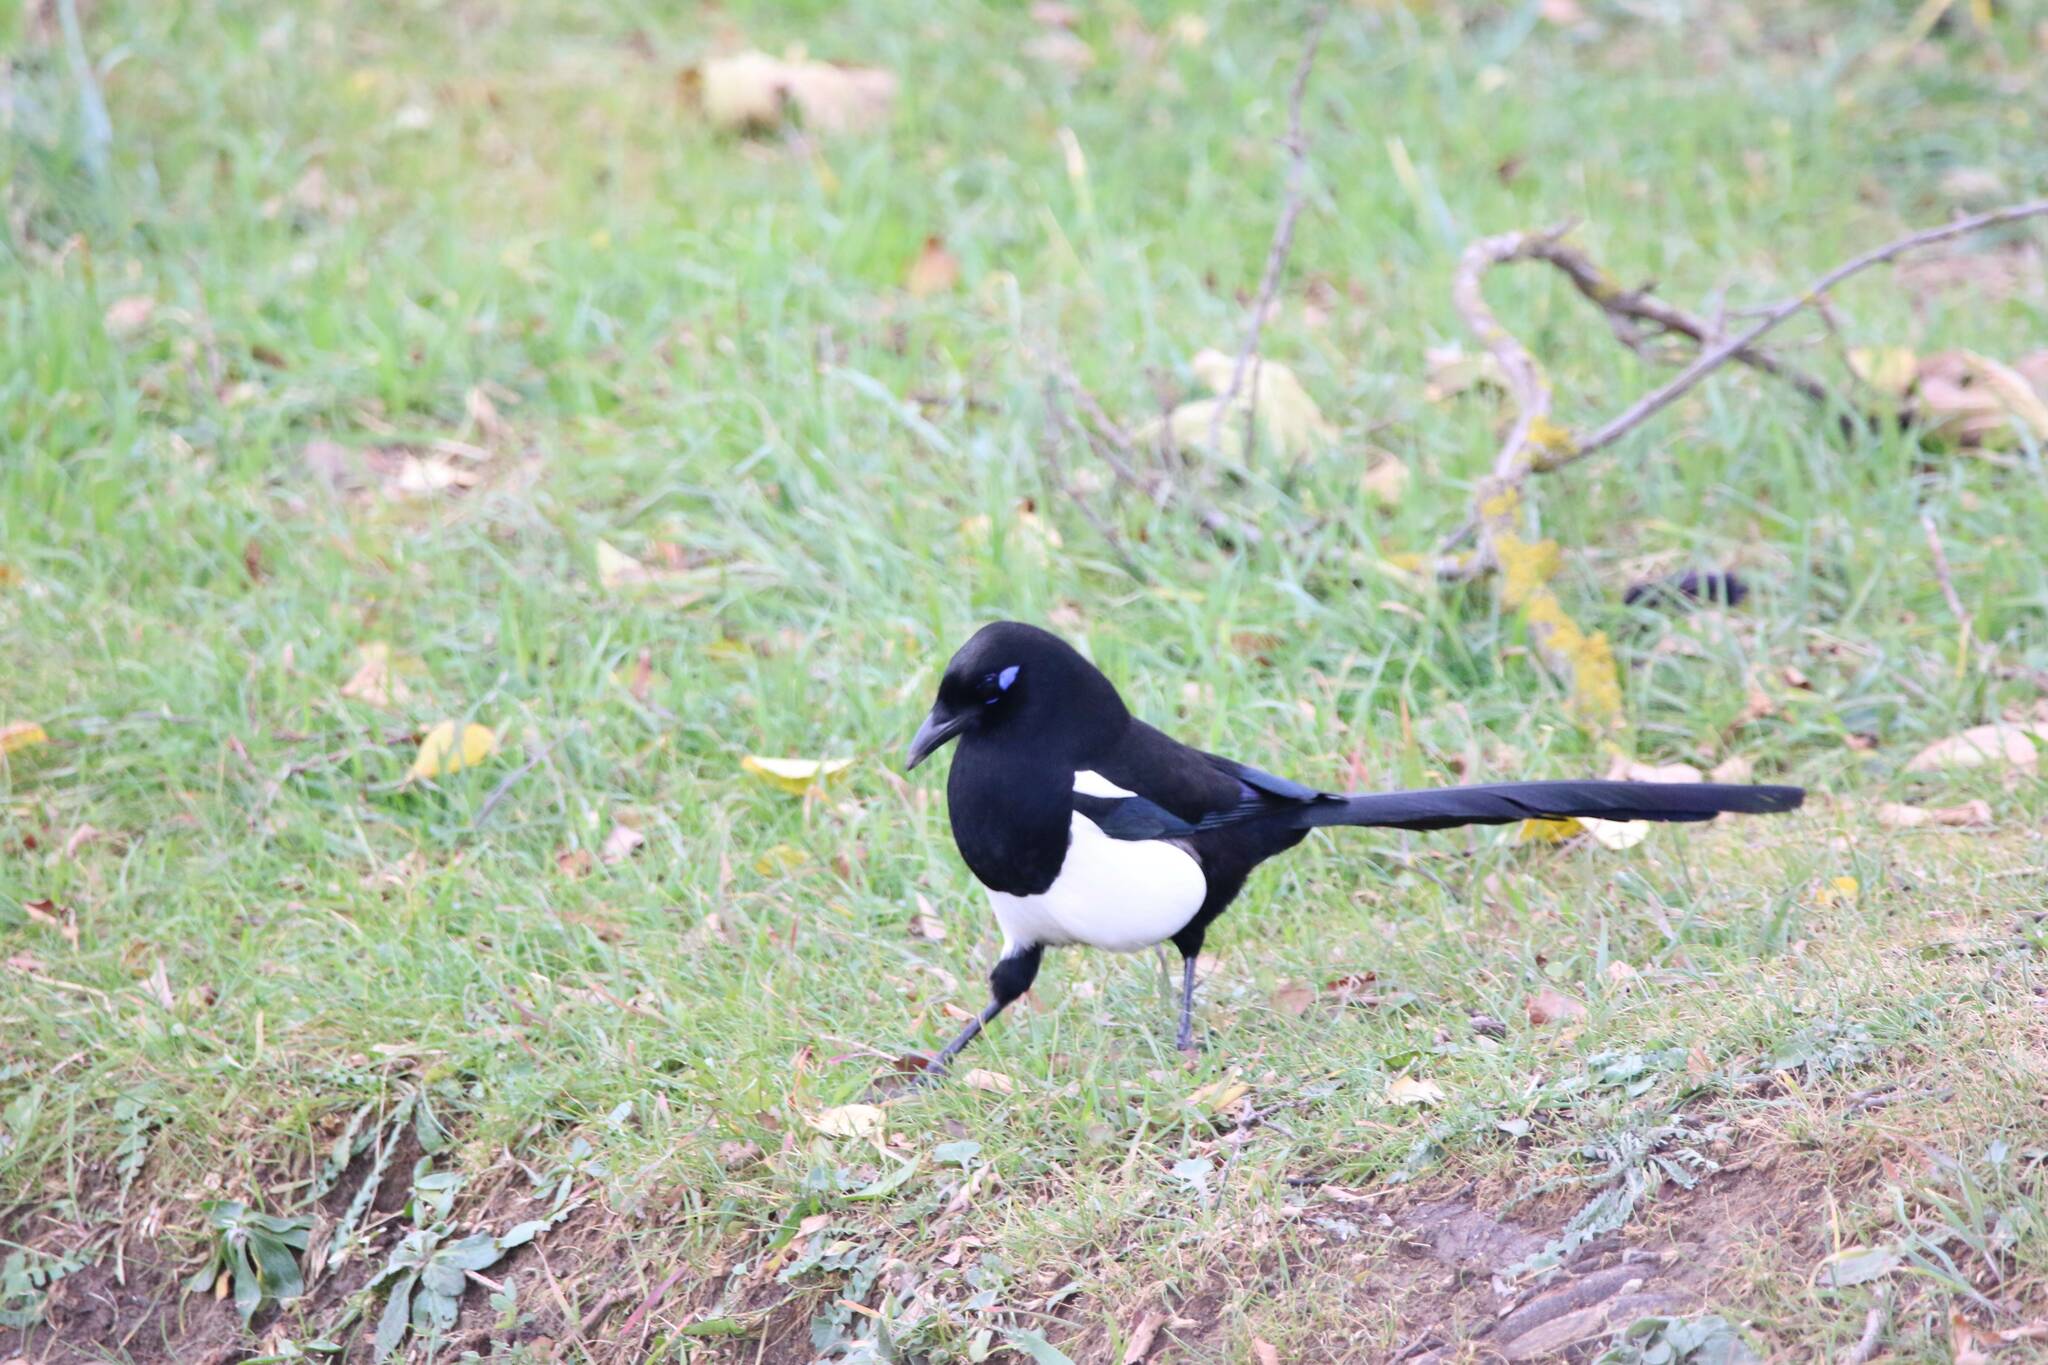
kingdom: Animalia
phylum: Chordata
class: Aves
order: Passeriformes
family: Corvidae
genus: Pica
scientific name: Pica mauritanica
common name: Maghreb magpie
